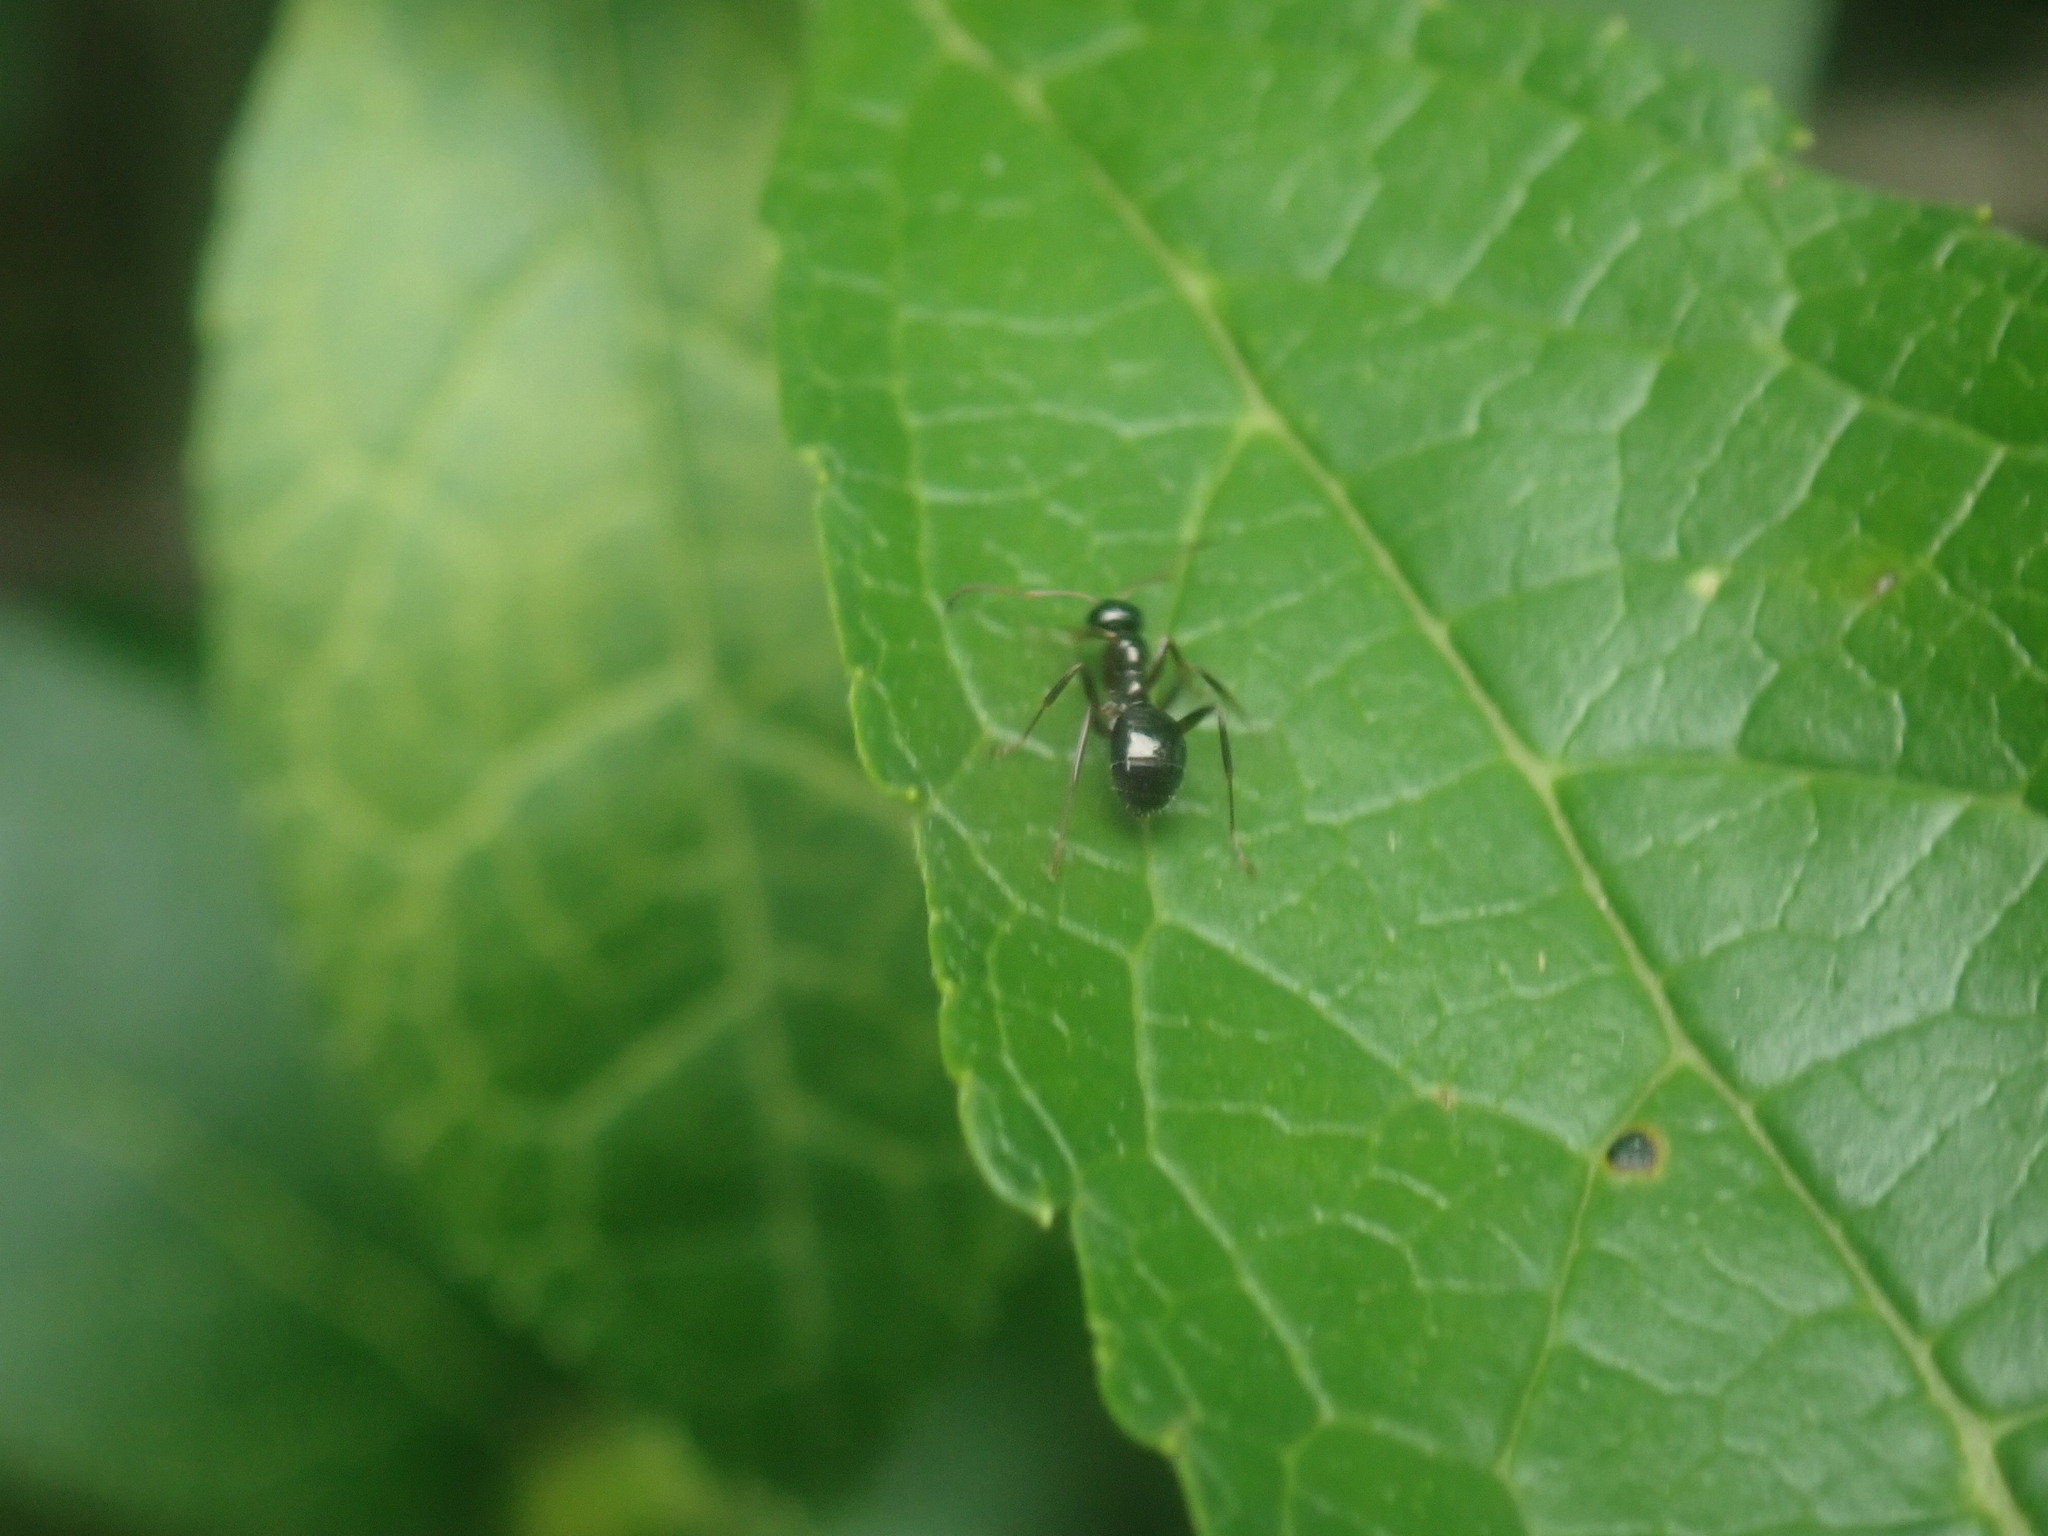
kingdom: Animalia
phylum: Arthropoda
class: Insecta
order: Hymenoptera
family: Formicidae
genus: Formica
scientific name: Formica
